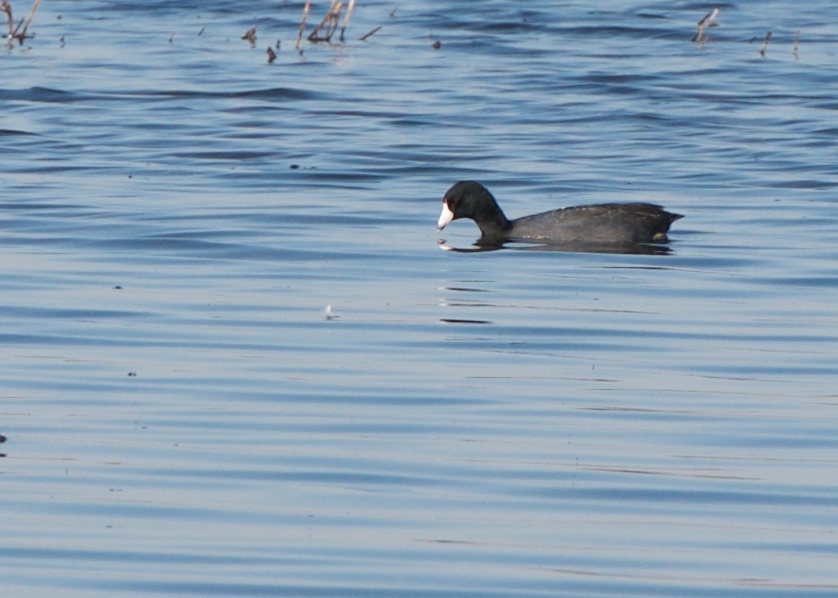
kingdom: Animalia
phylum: Chordata
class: Aves
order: Gruiformes
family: Rallidae
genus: Fulica
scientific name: Fulica americana
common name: American coot
